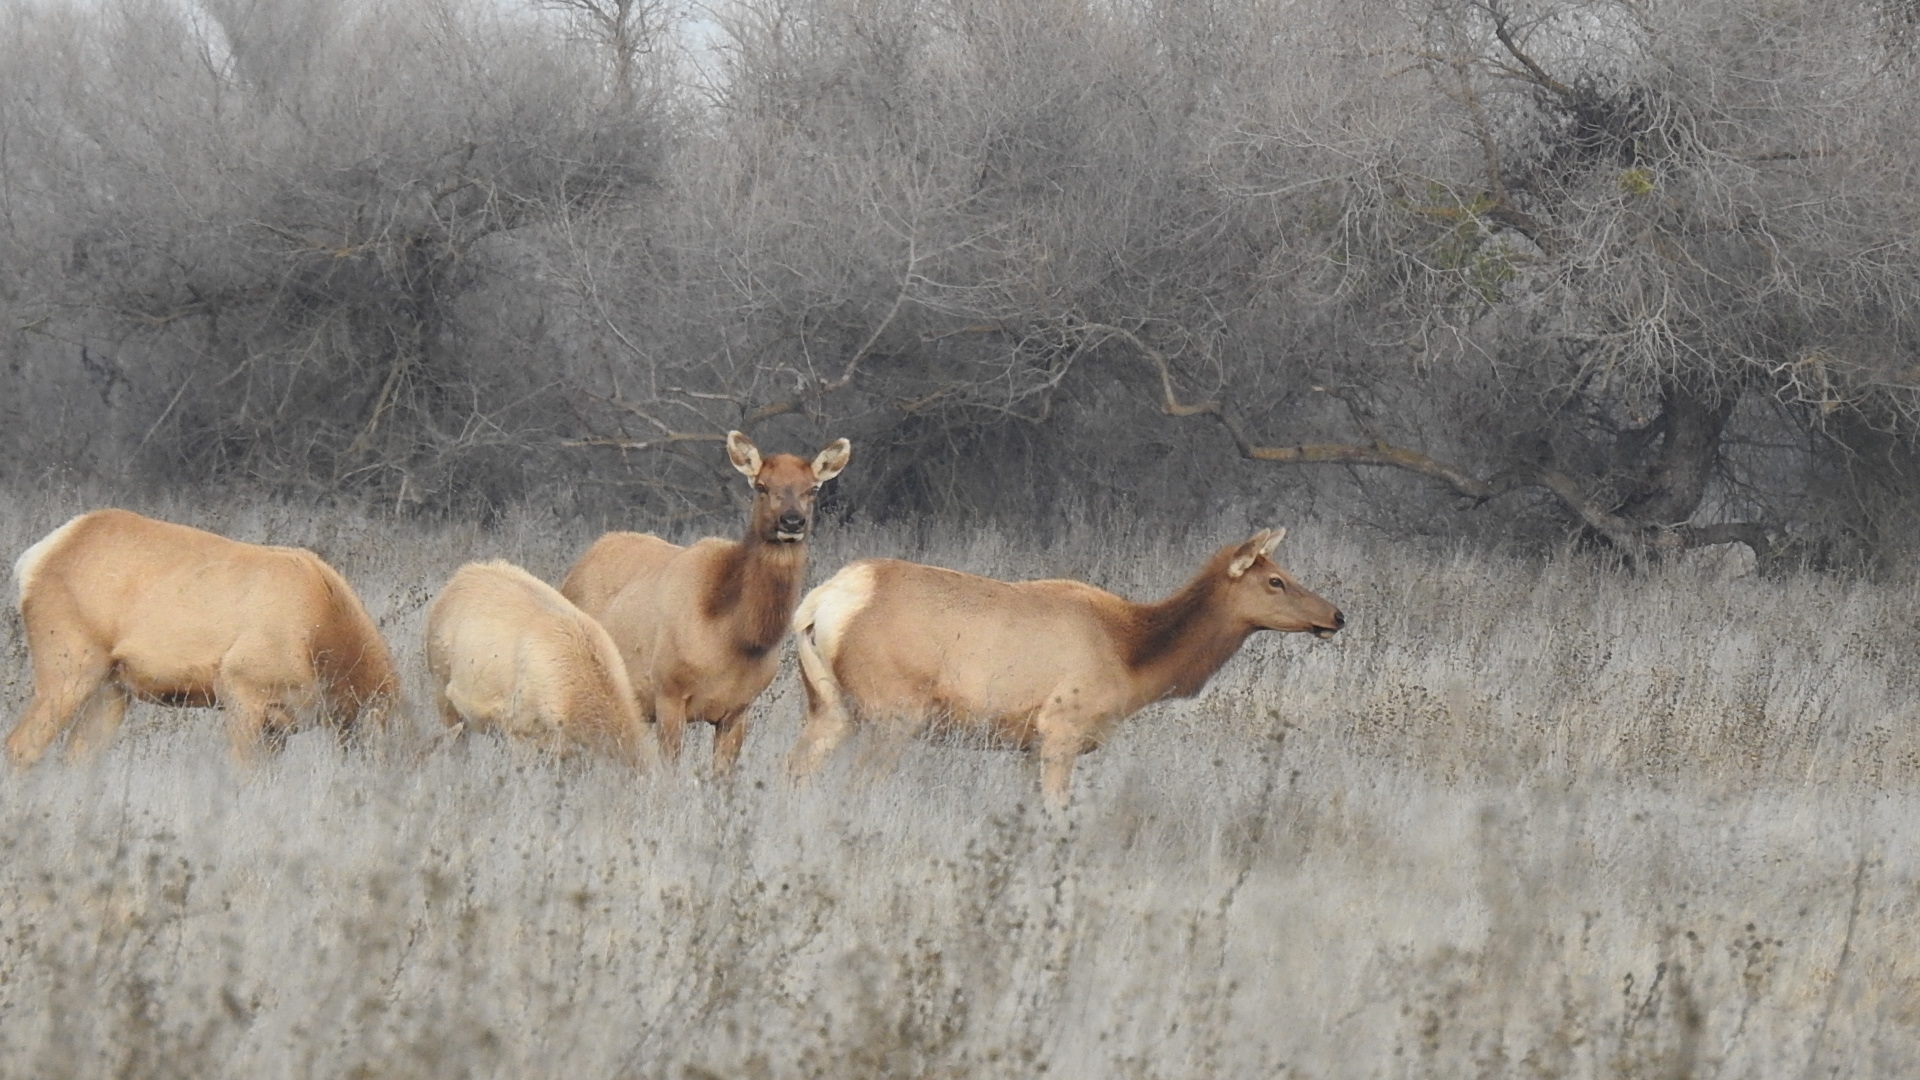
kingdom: Animalia
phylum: Chordata
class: Mammalia
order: Artiodactyla
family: Cervidae
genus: Cervus
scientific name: Cervus elaphus
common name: Red deer
